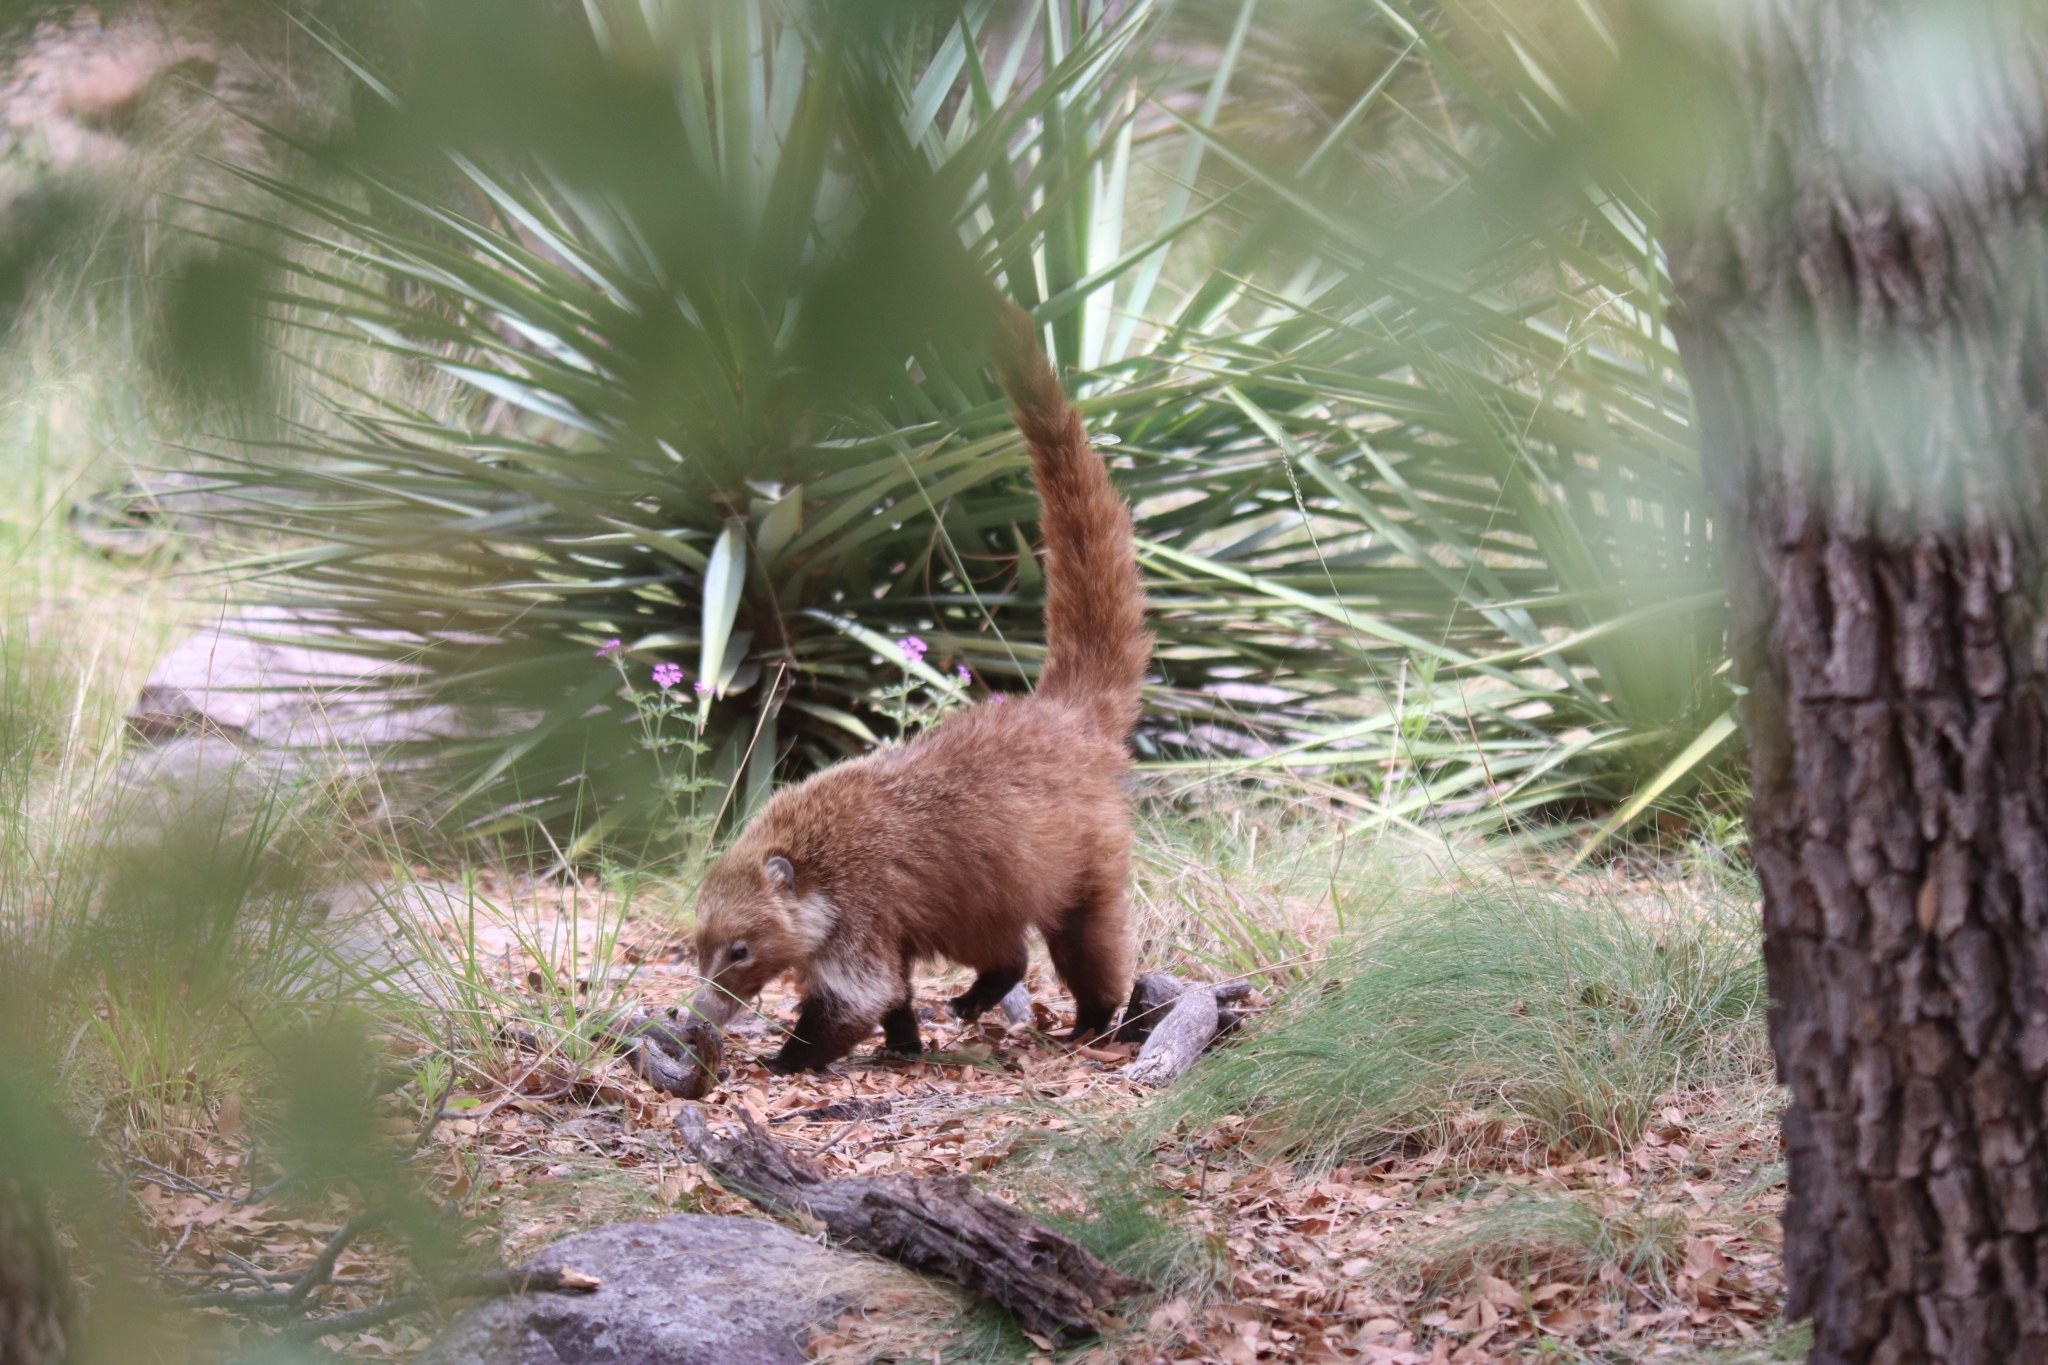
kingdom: Animalia
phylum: Chordata
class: Mammalia
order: Carnivora
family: Procyonidae
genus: Nasua
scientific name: Nasua narica
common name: White-nosed coati
